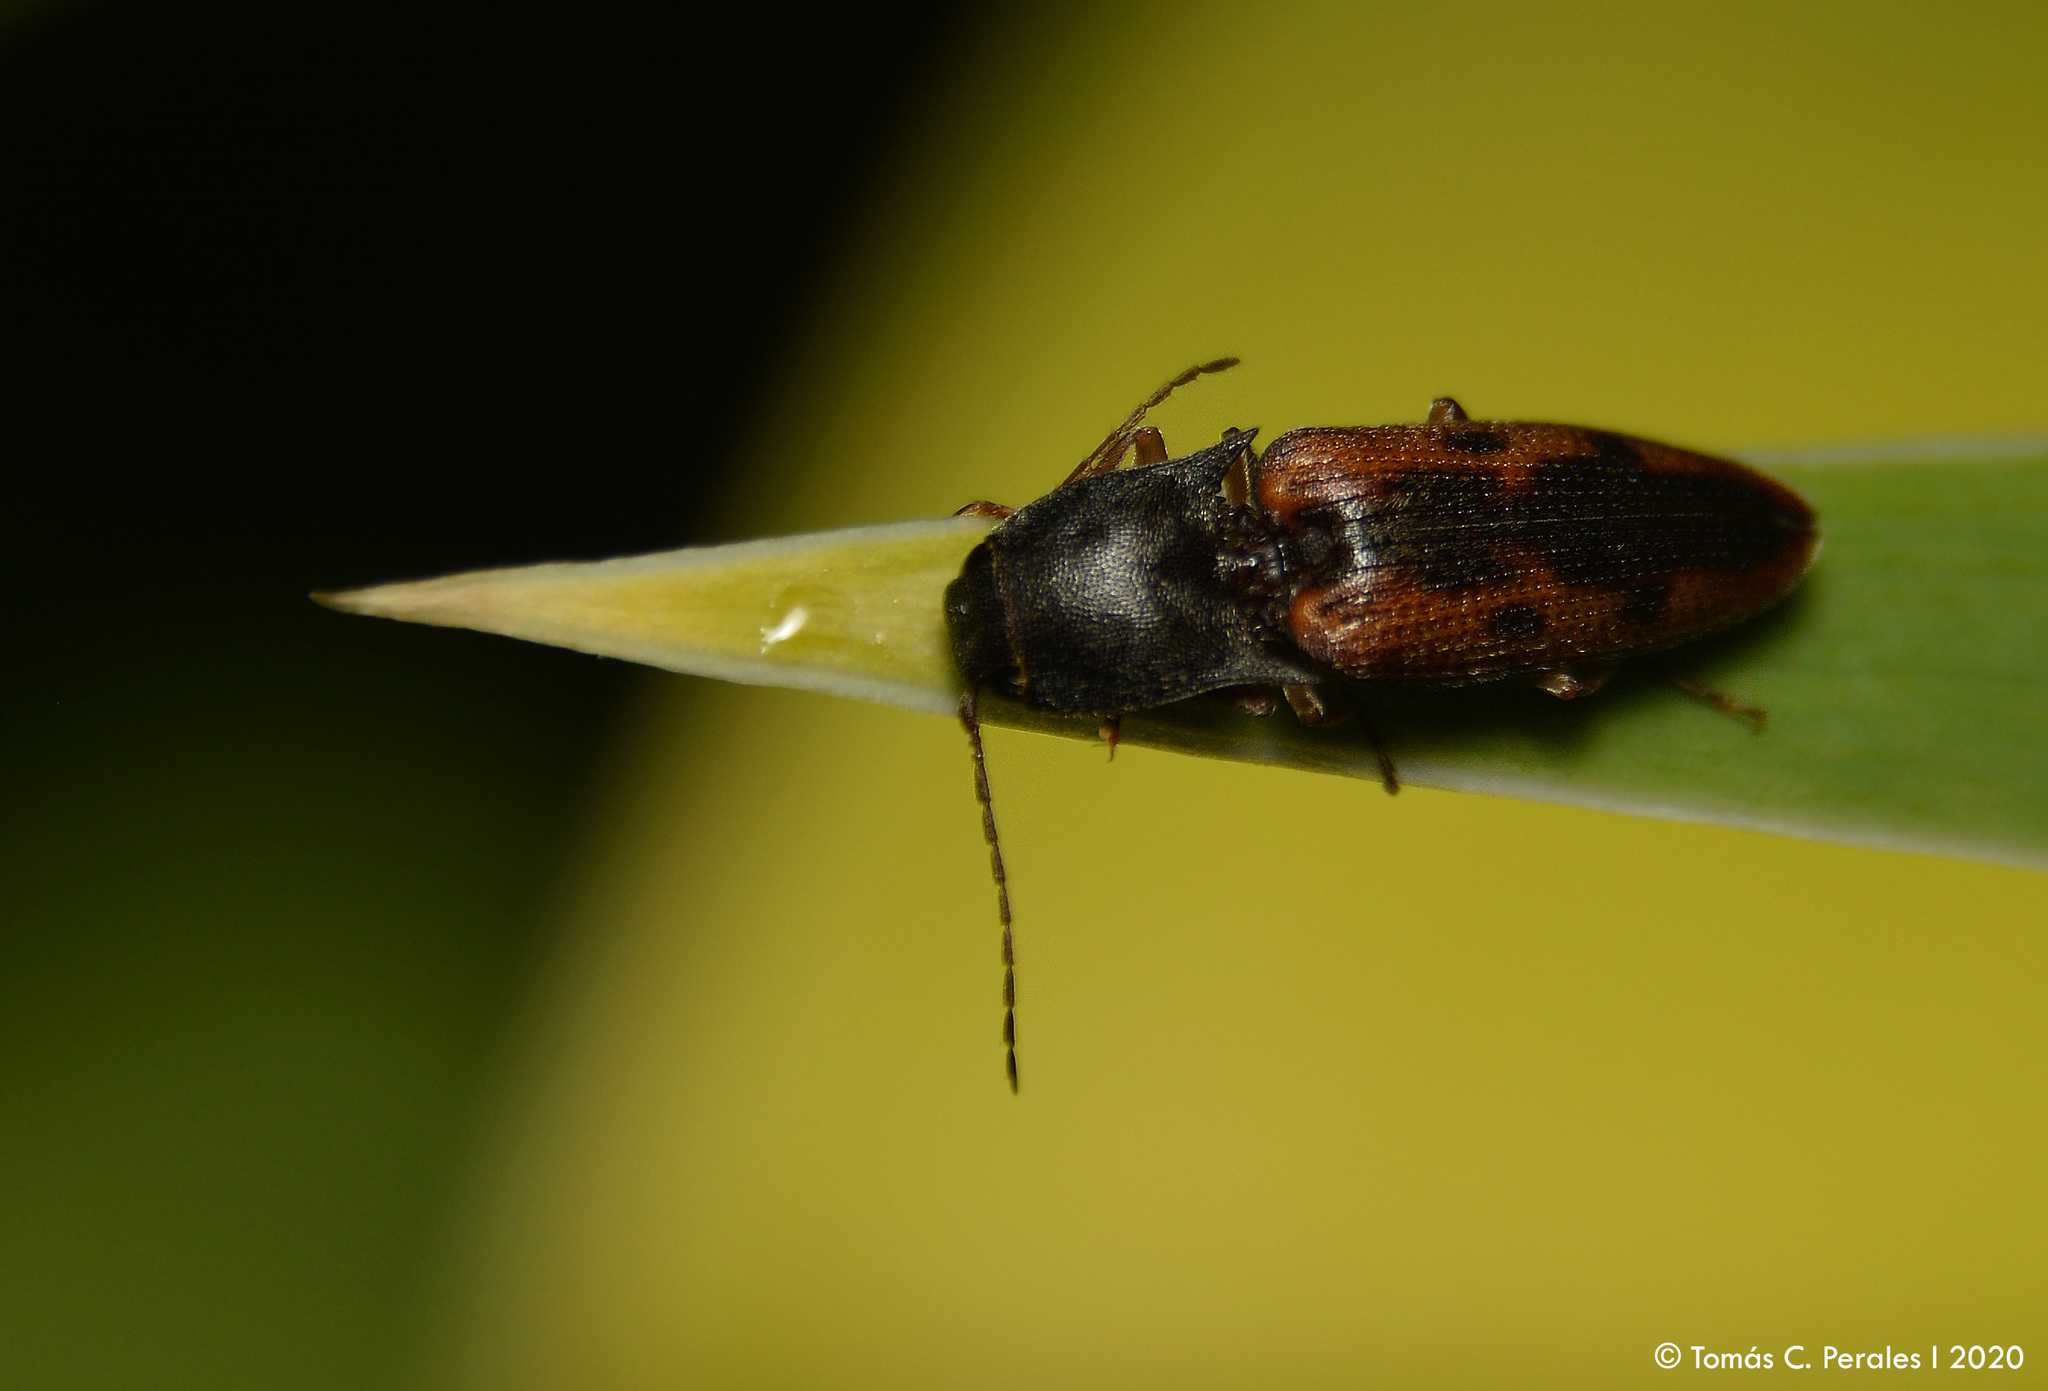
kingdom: Animalia
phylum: Arthropoda
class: Insecta
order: Coleoptera
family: Elateridae
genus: Monocrepidius
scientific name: Monocrepidius
